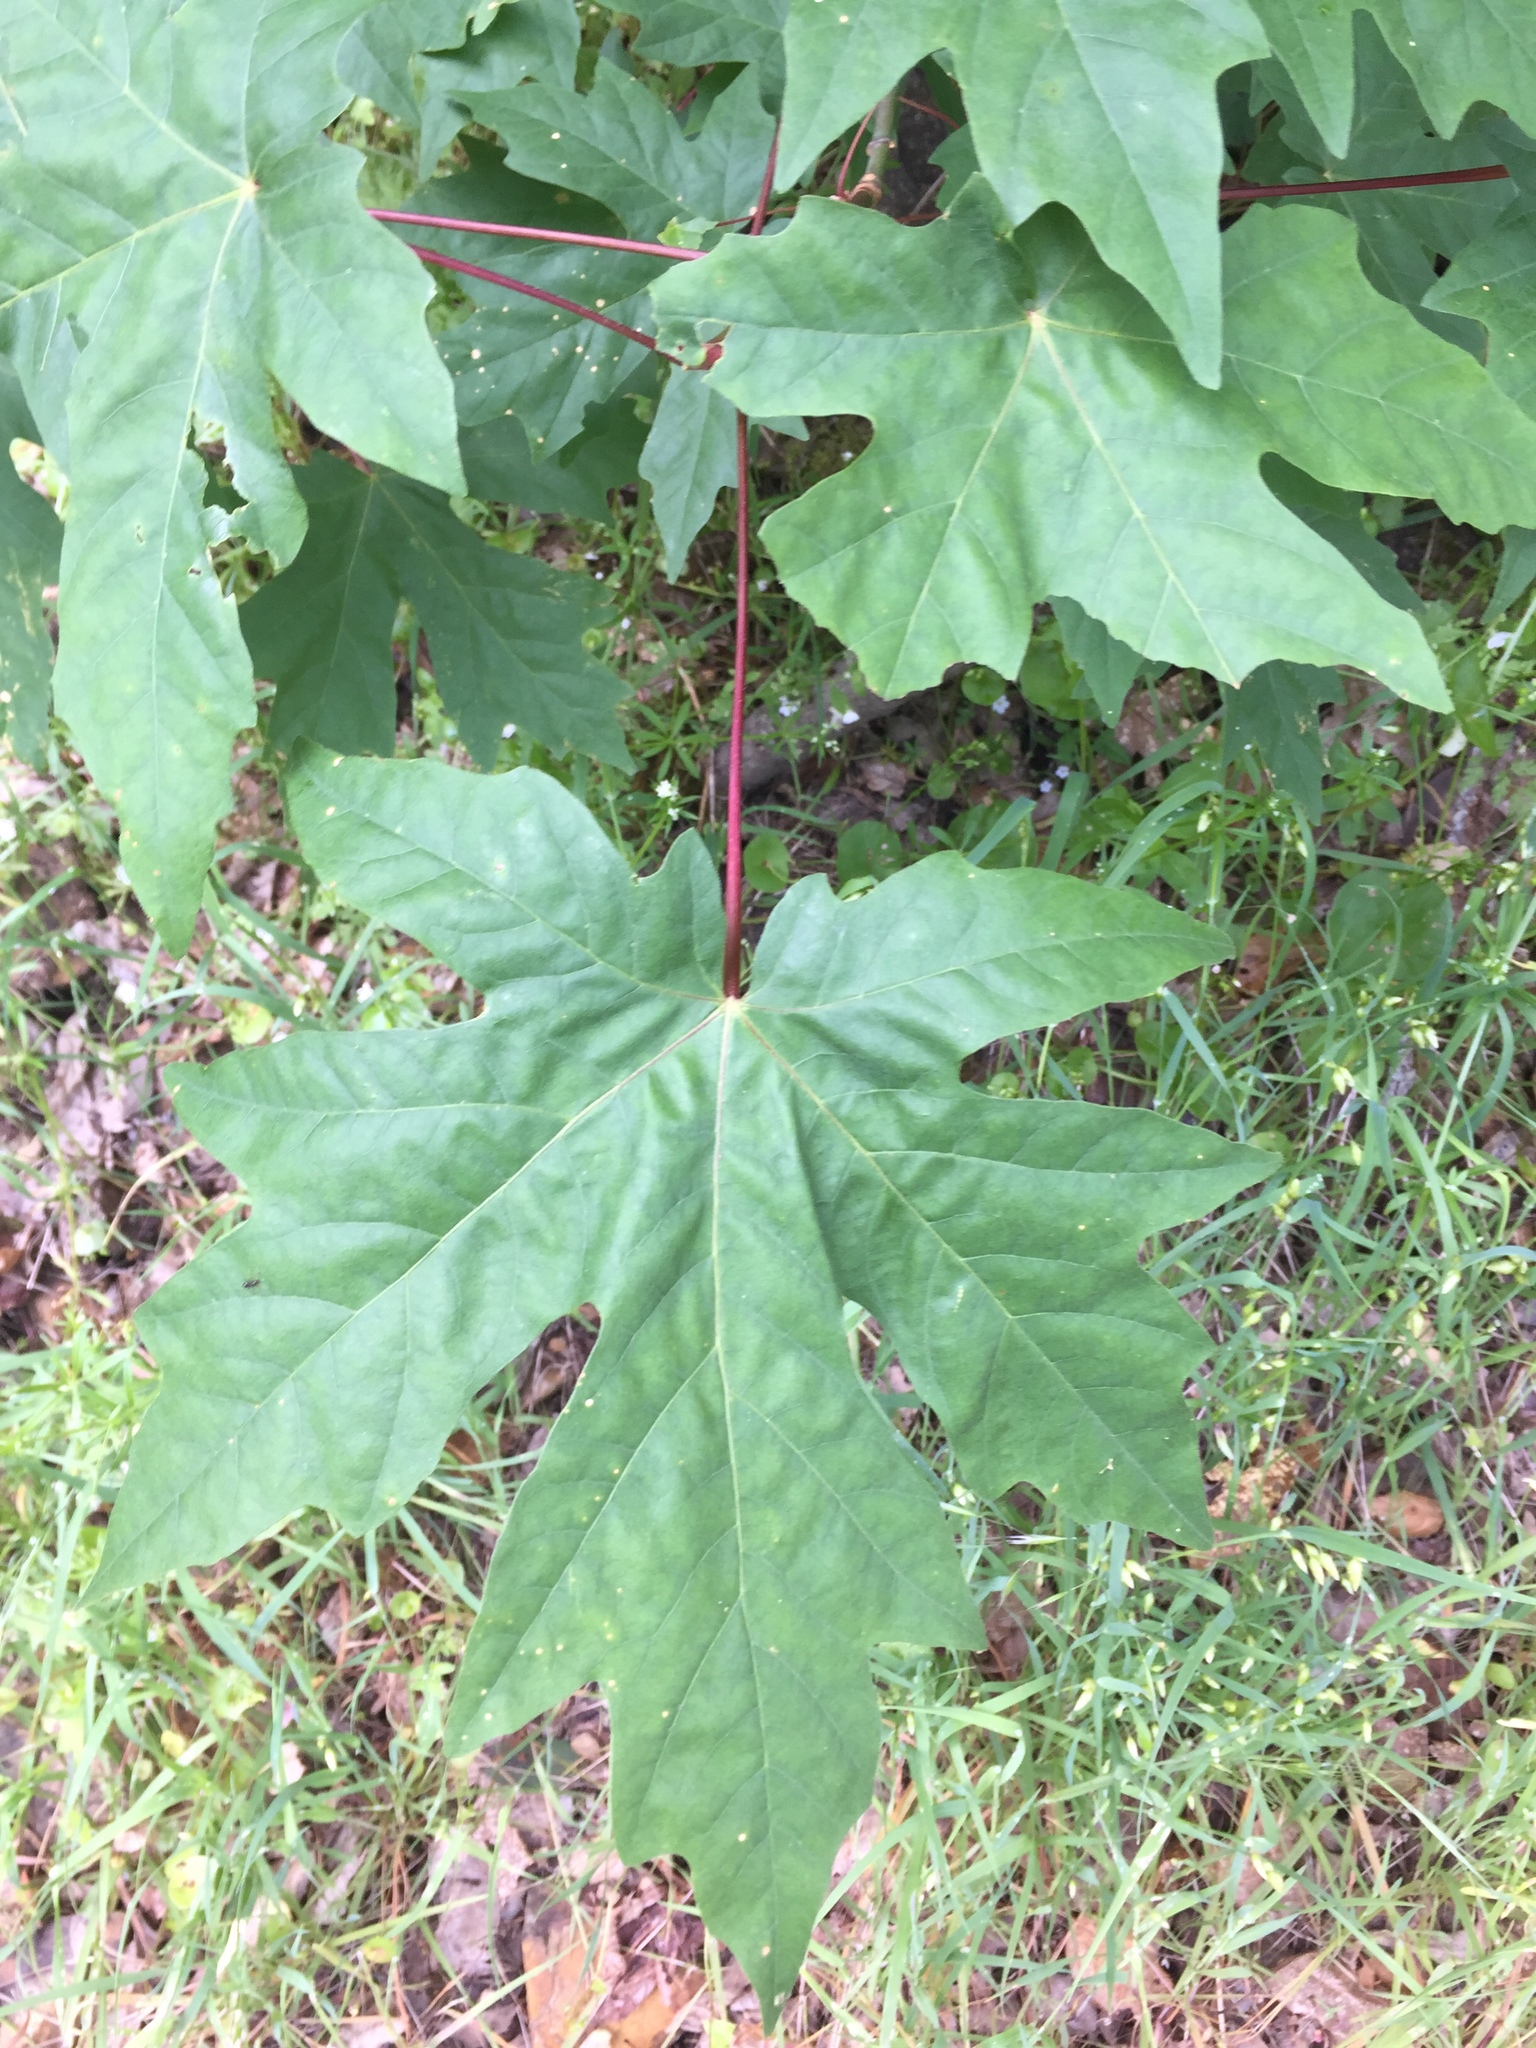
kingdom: Plantae
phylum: Tracheophyta
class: Magnoliopsida
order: Sapindales
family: Sapindaceae
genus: Acer
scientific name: Acer macrophyllum
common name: Oregon maple
